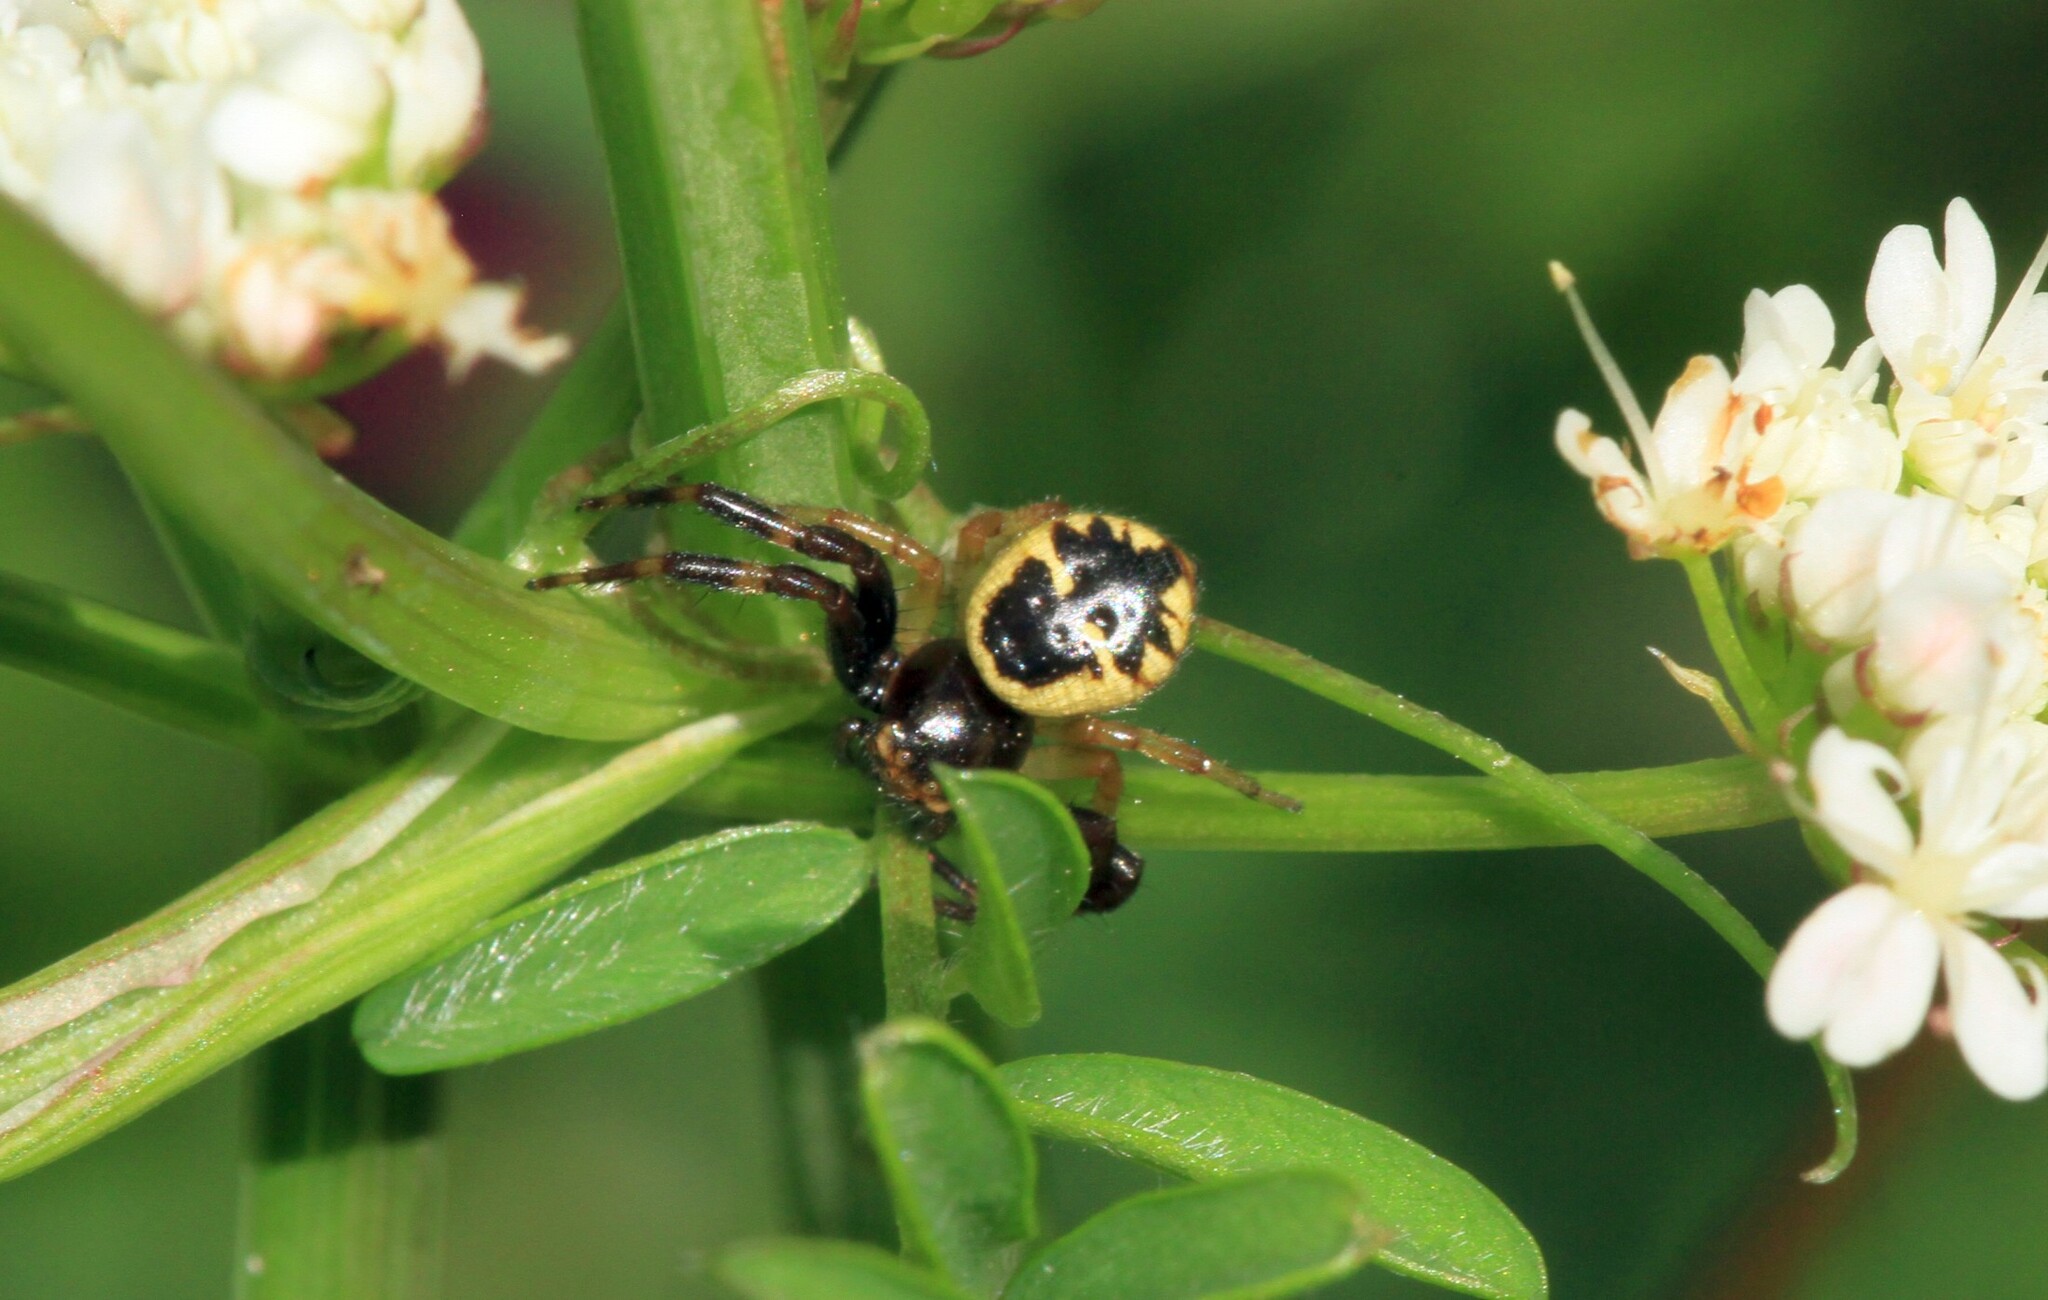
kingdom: Animalia
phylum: Arthropoda
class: Arachnida
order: Araneae
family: Thomisidae
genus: Synema
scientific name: Synema globosum
